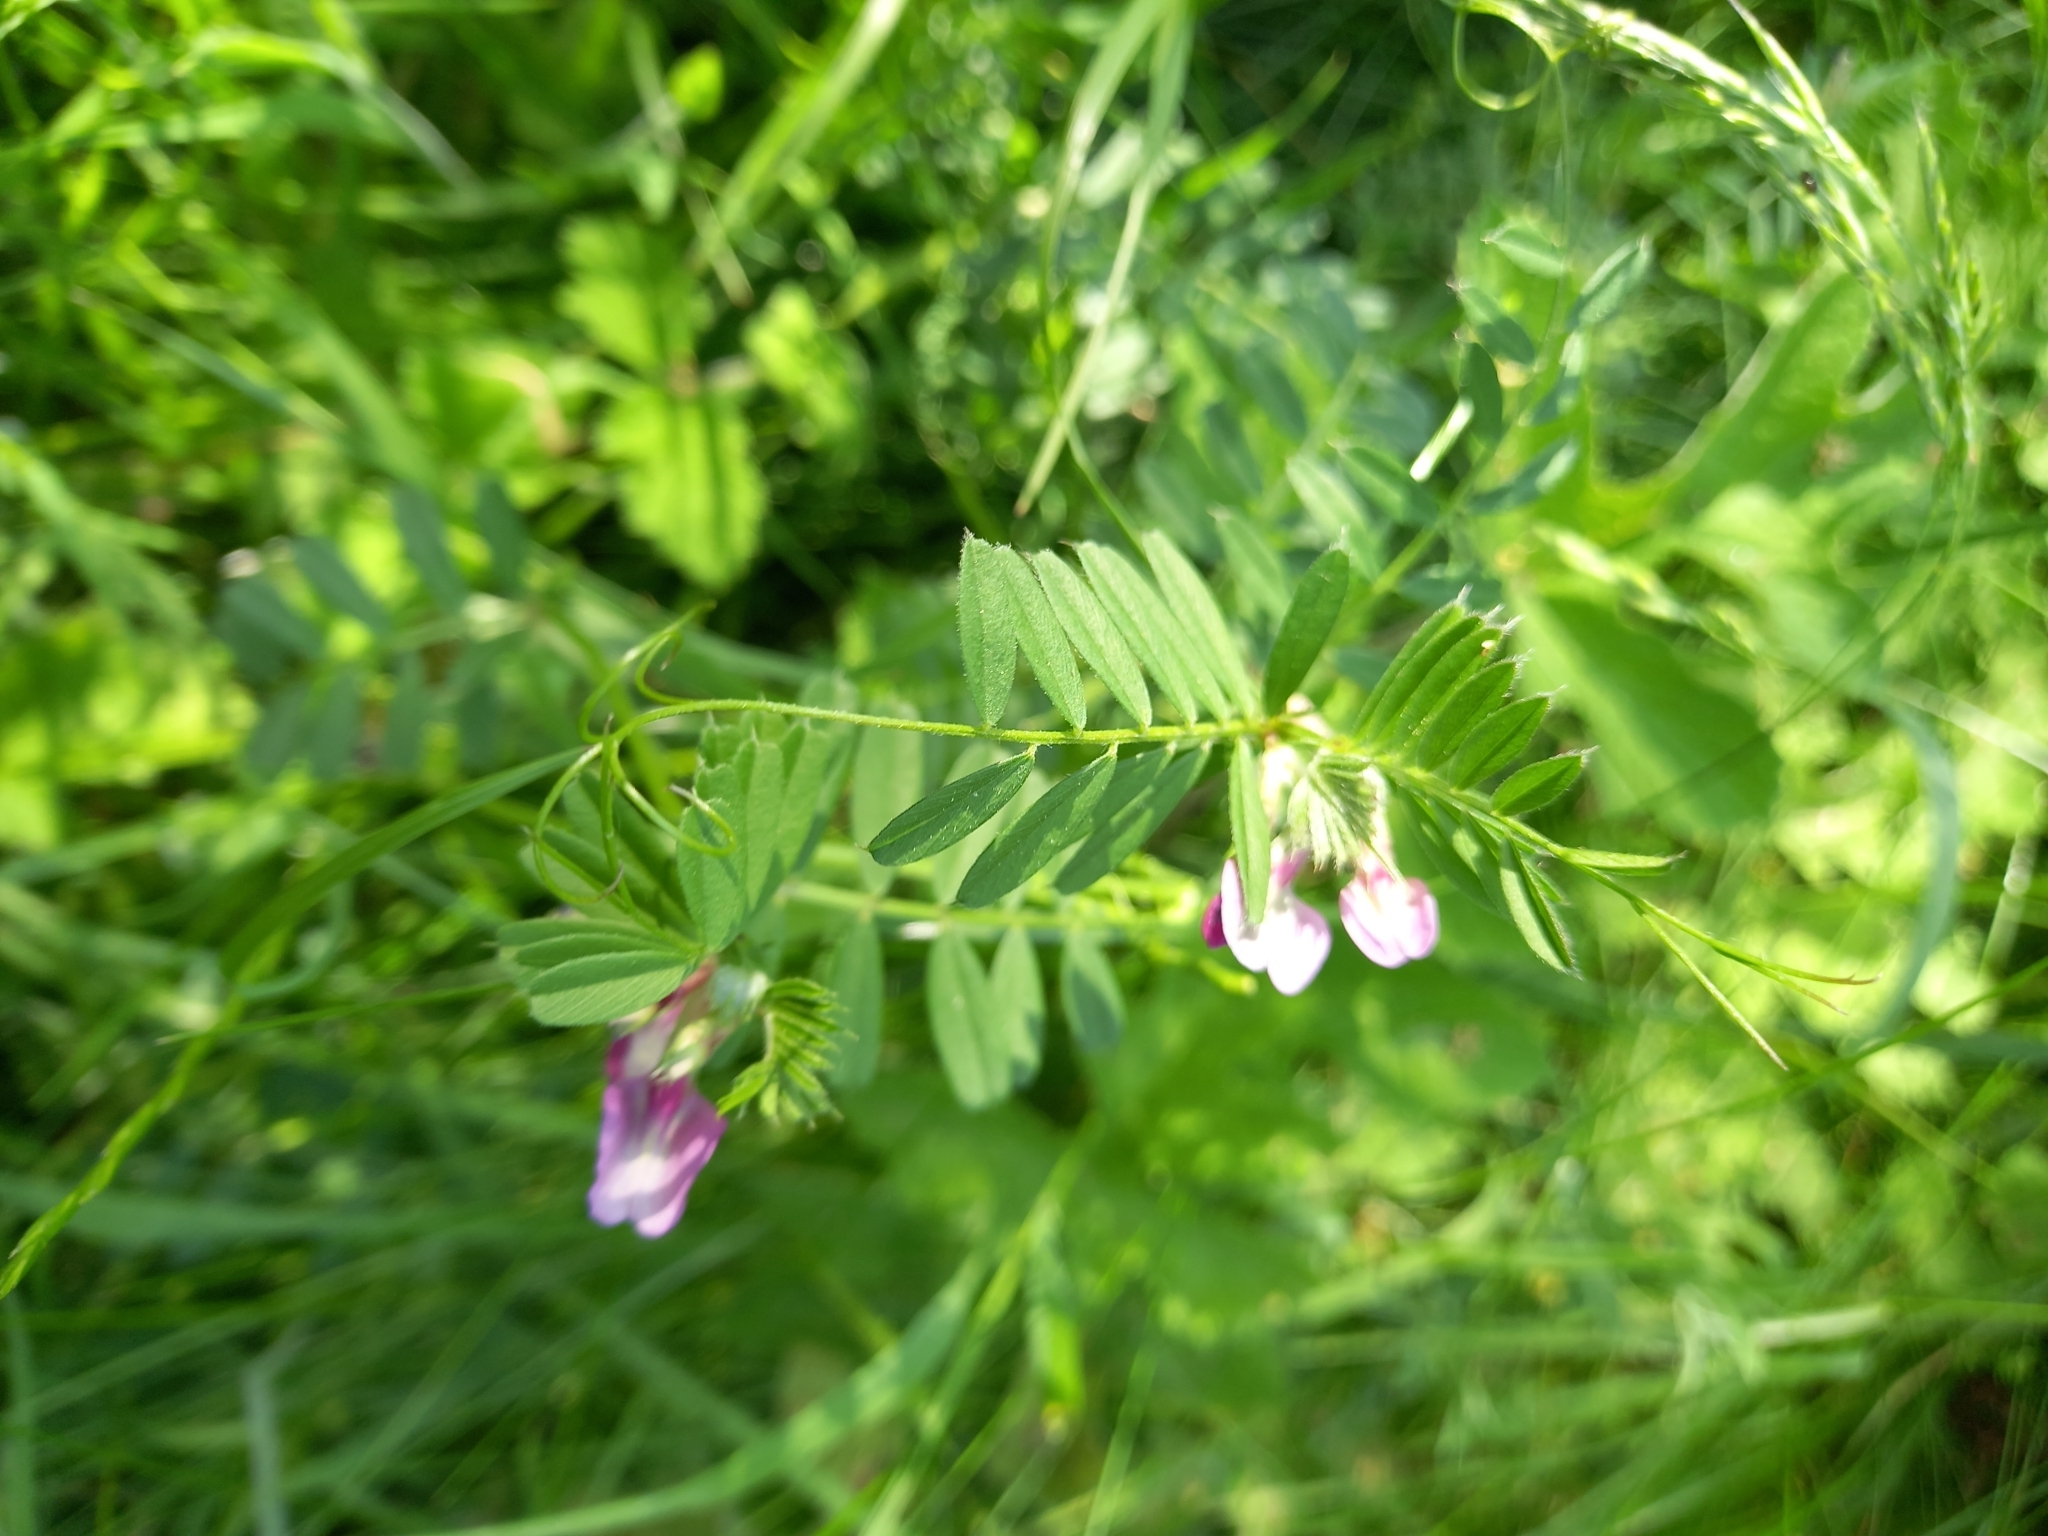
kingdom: Plantae
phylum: Tracheophyta
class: Magnoliopsida
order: Fabales
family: Fabaceae
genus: Vicia
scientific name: Vicia sepium
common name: Bush vetch
